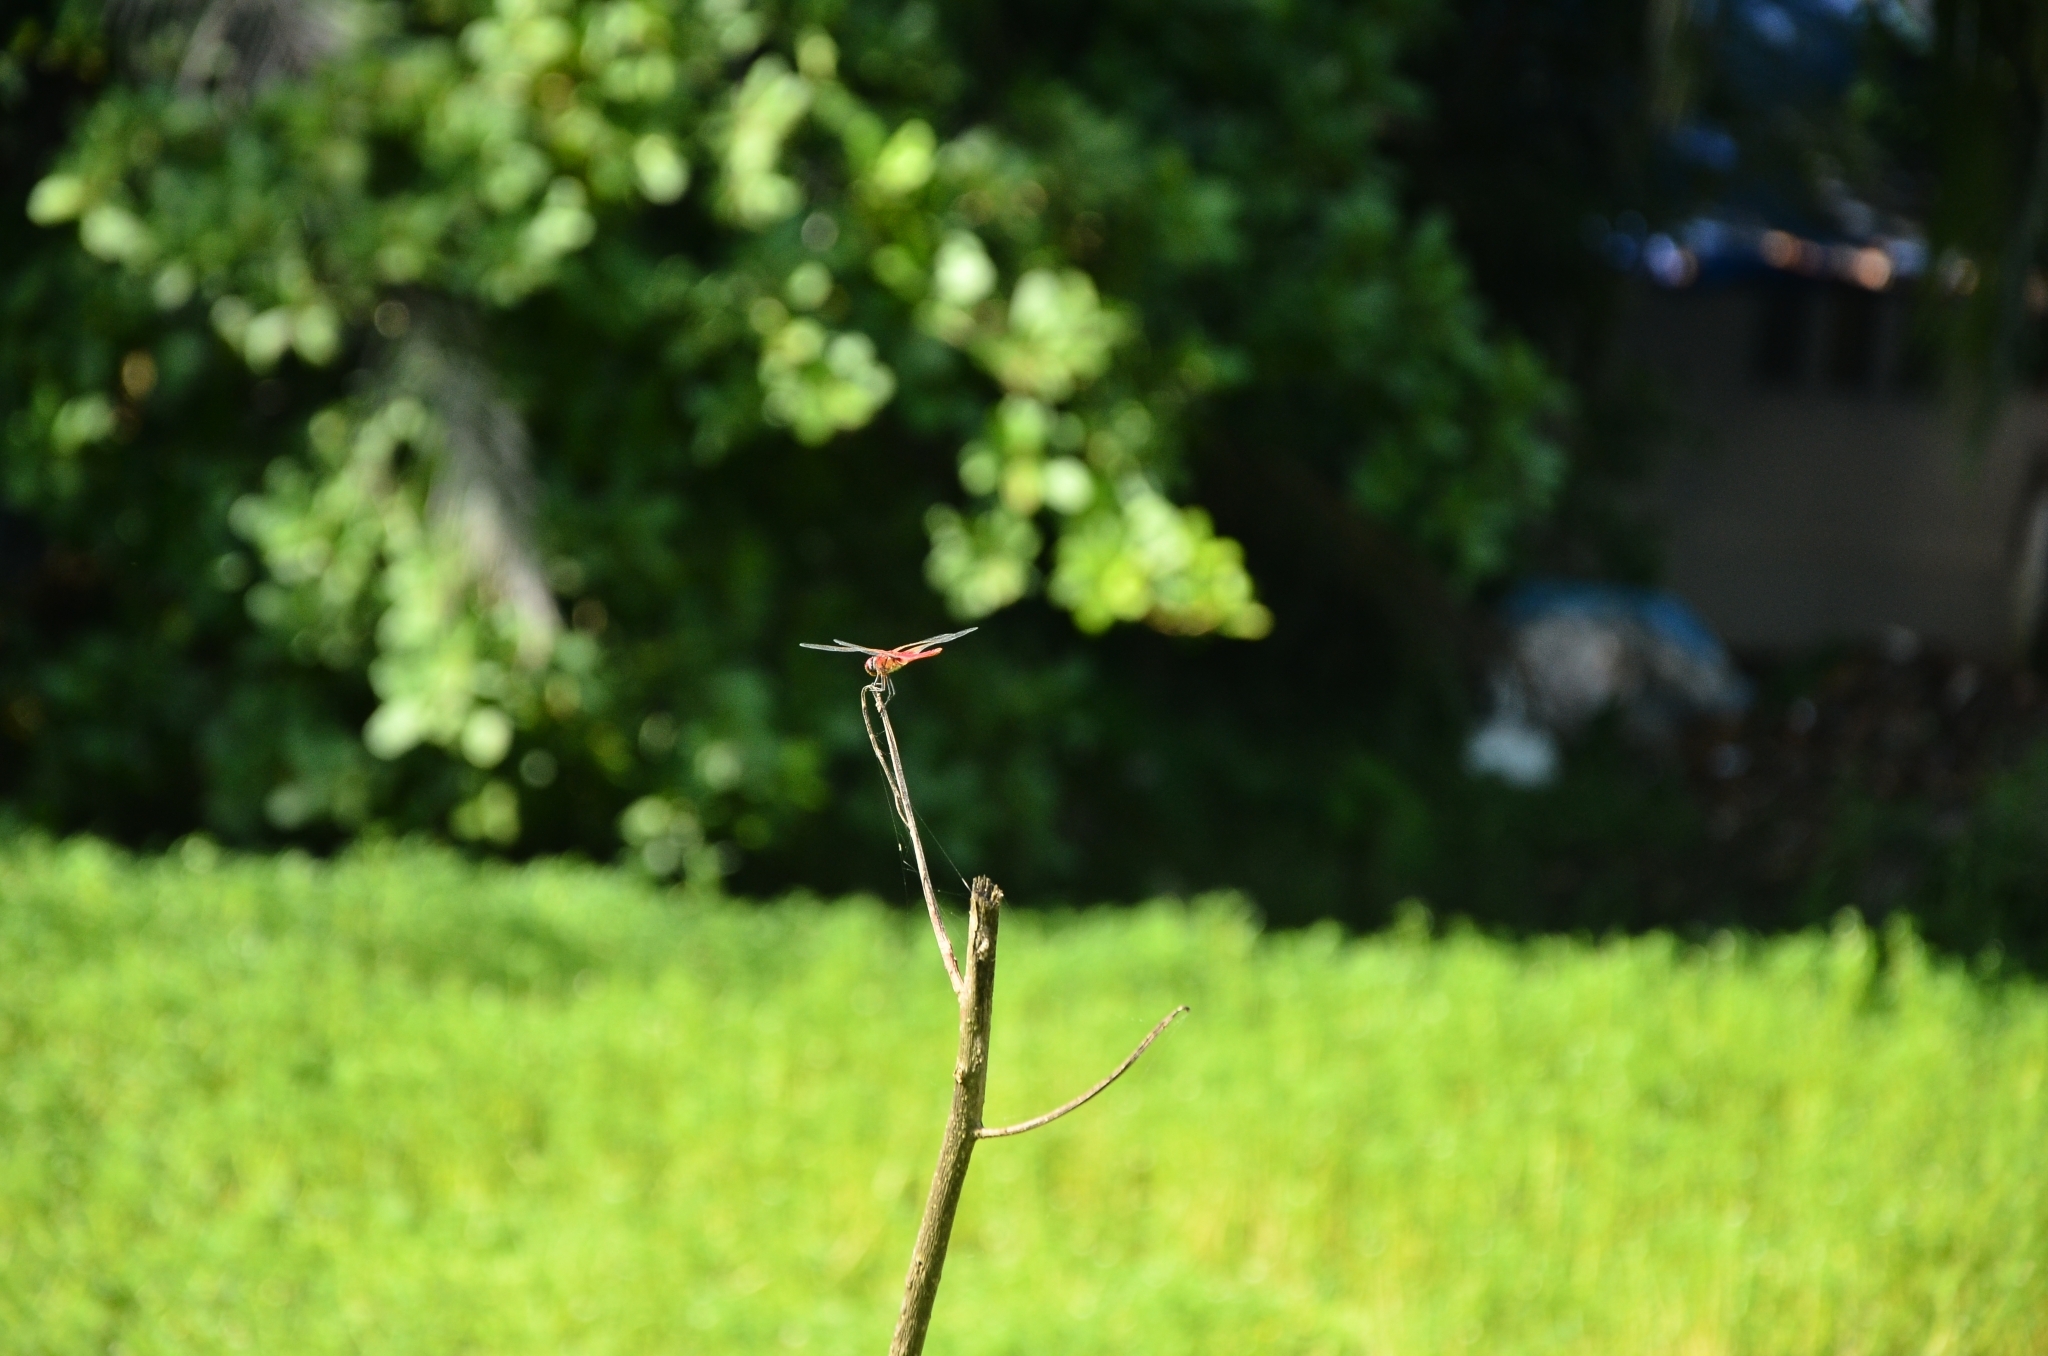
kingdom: Animalia
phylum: Arthropoda
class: Insecta
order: Odonata
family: Libellulidae
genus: Urothemis
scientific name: Urothemis signata
